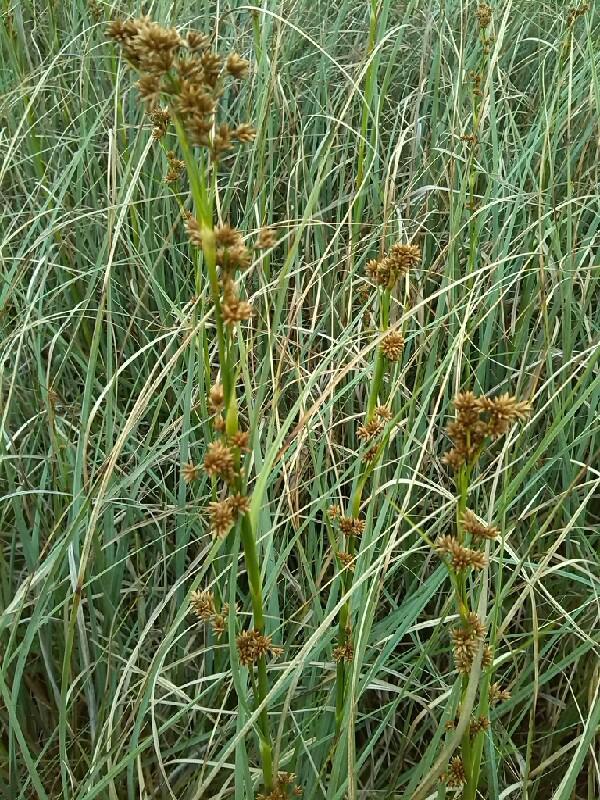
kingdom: Plantae
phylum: Tracheophyta
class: Liliopsida
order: Poales
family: Cyperaceae
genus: Cladium
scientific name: Cladium mariscus
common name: Great fen-sedge
